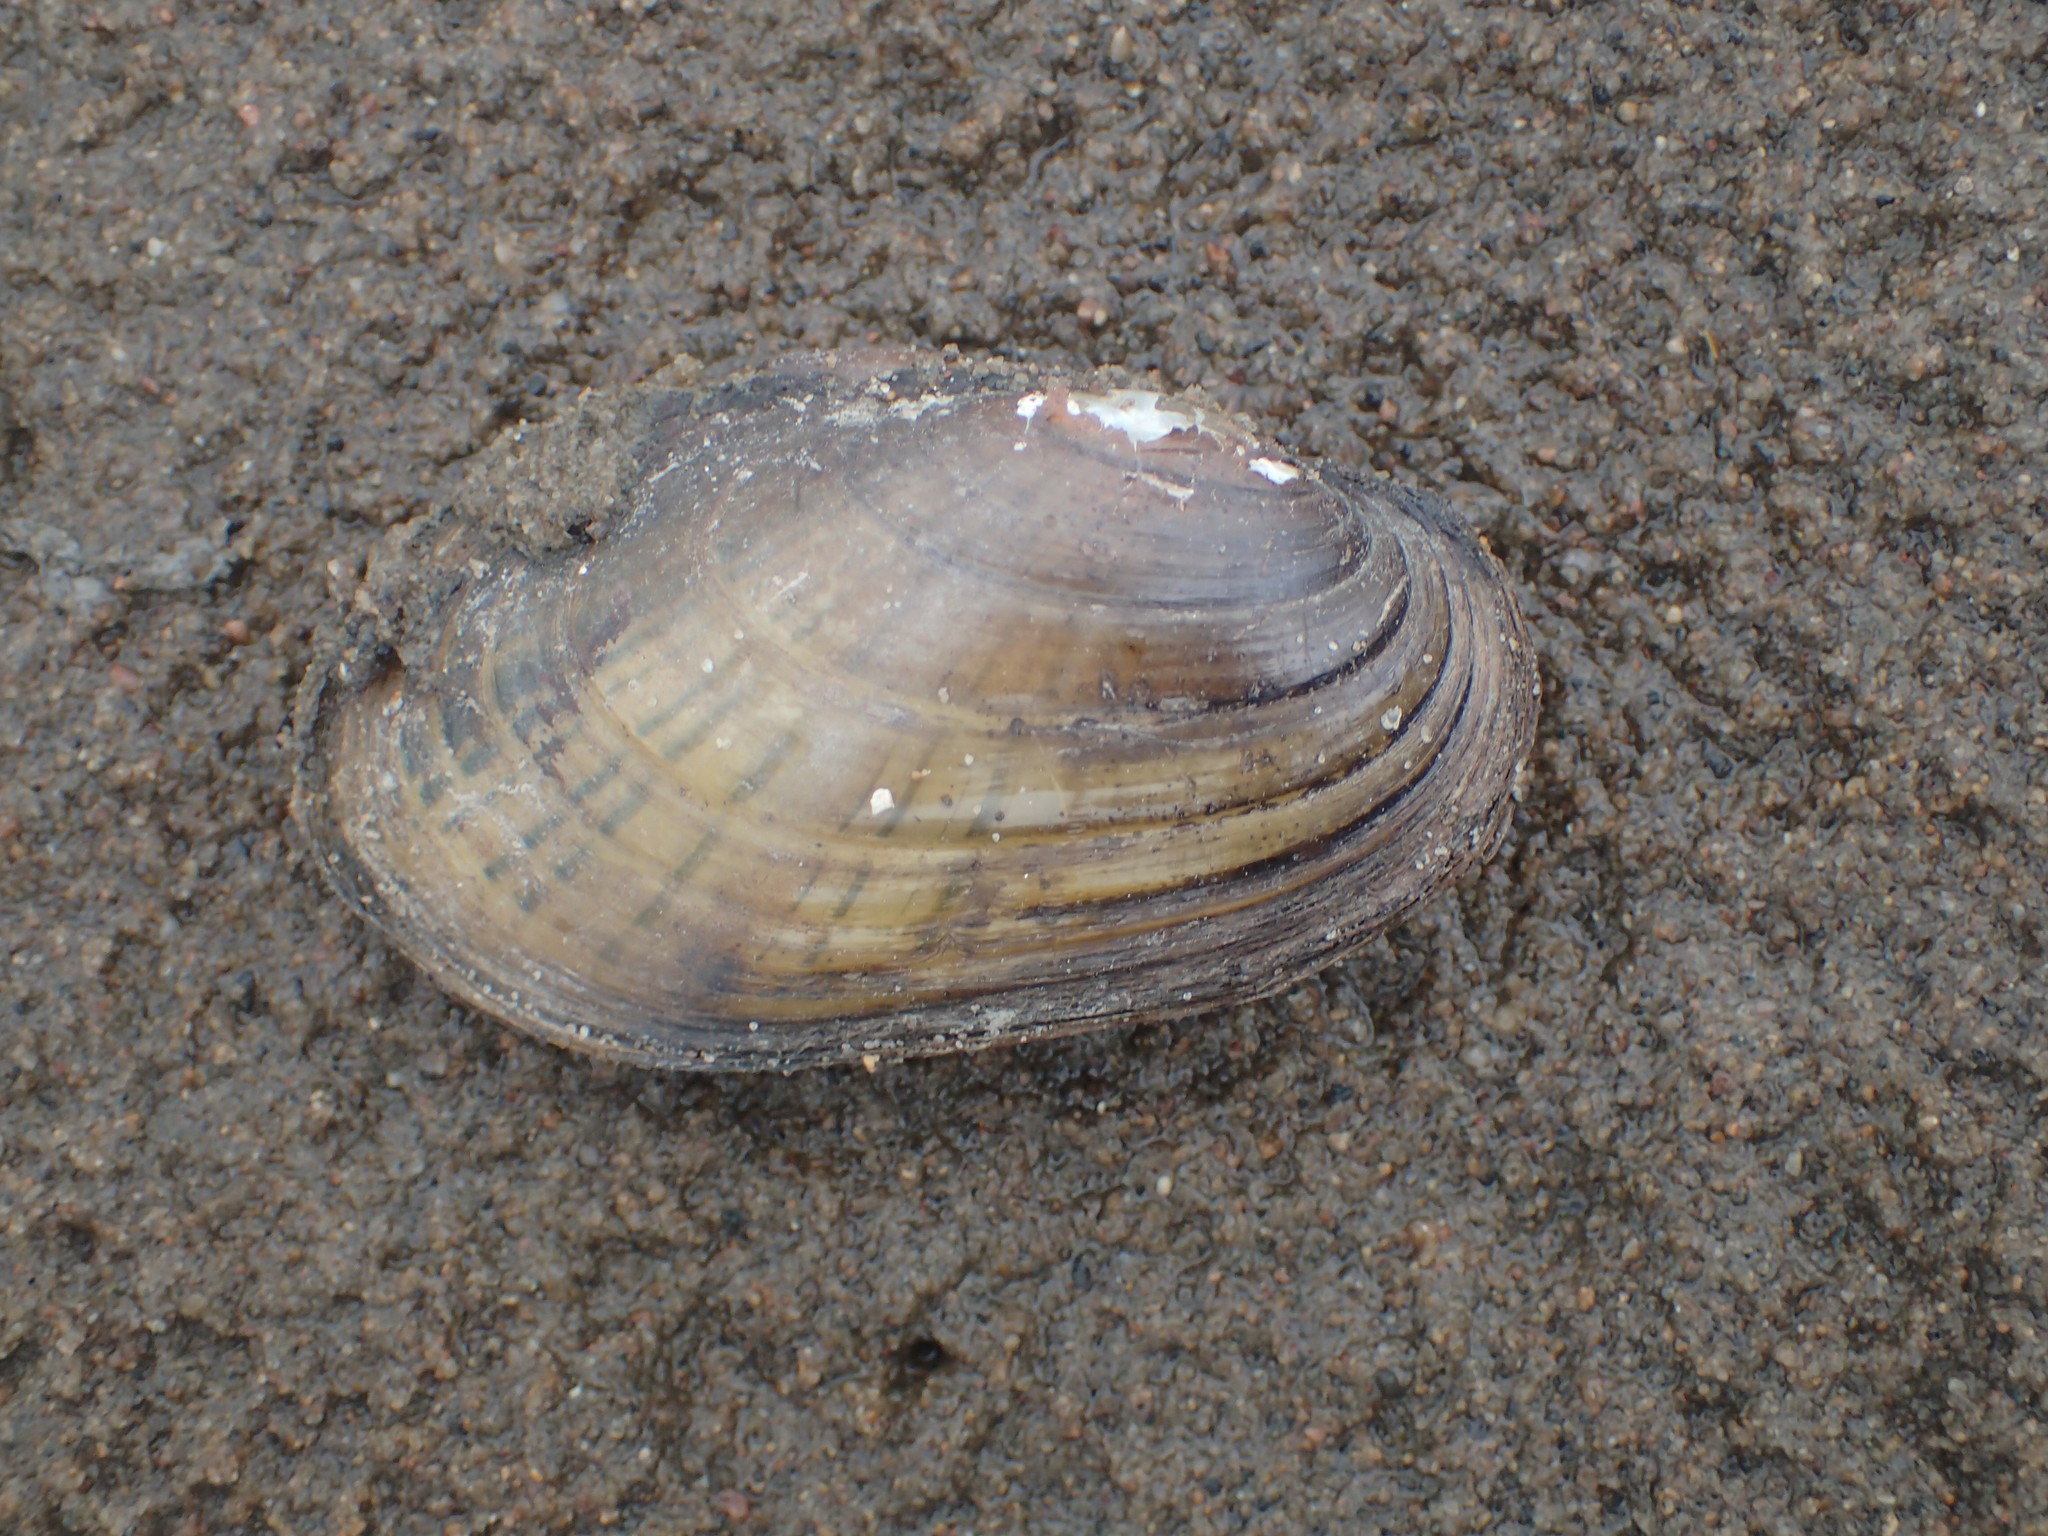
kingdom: Animalia
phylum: Mollusca
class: Bivalvia
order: Unionida
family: Unionidae
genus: Lampsilis
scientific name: Lampsilis siliquoidea
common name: Fatmucket
